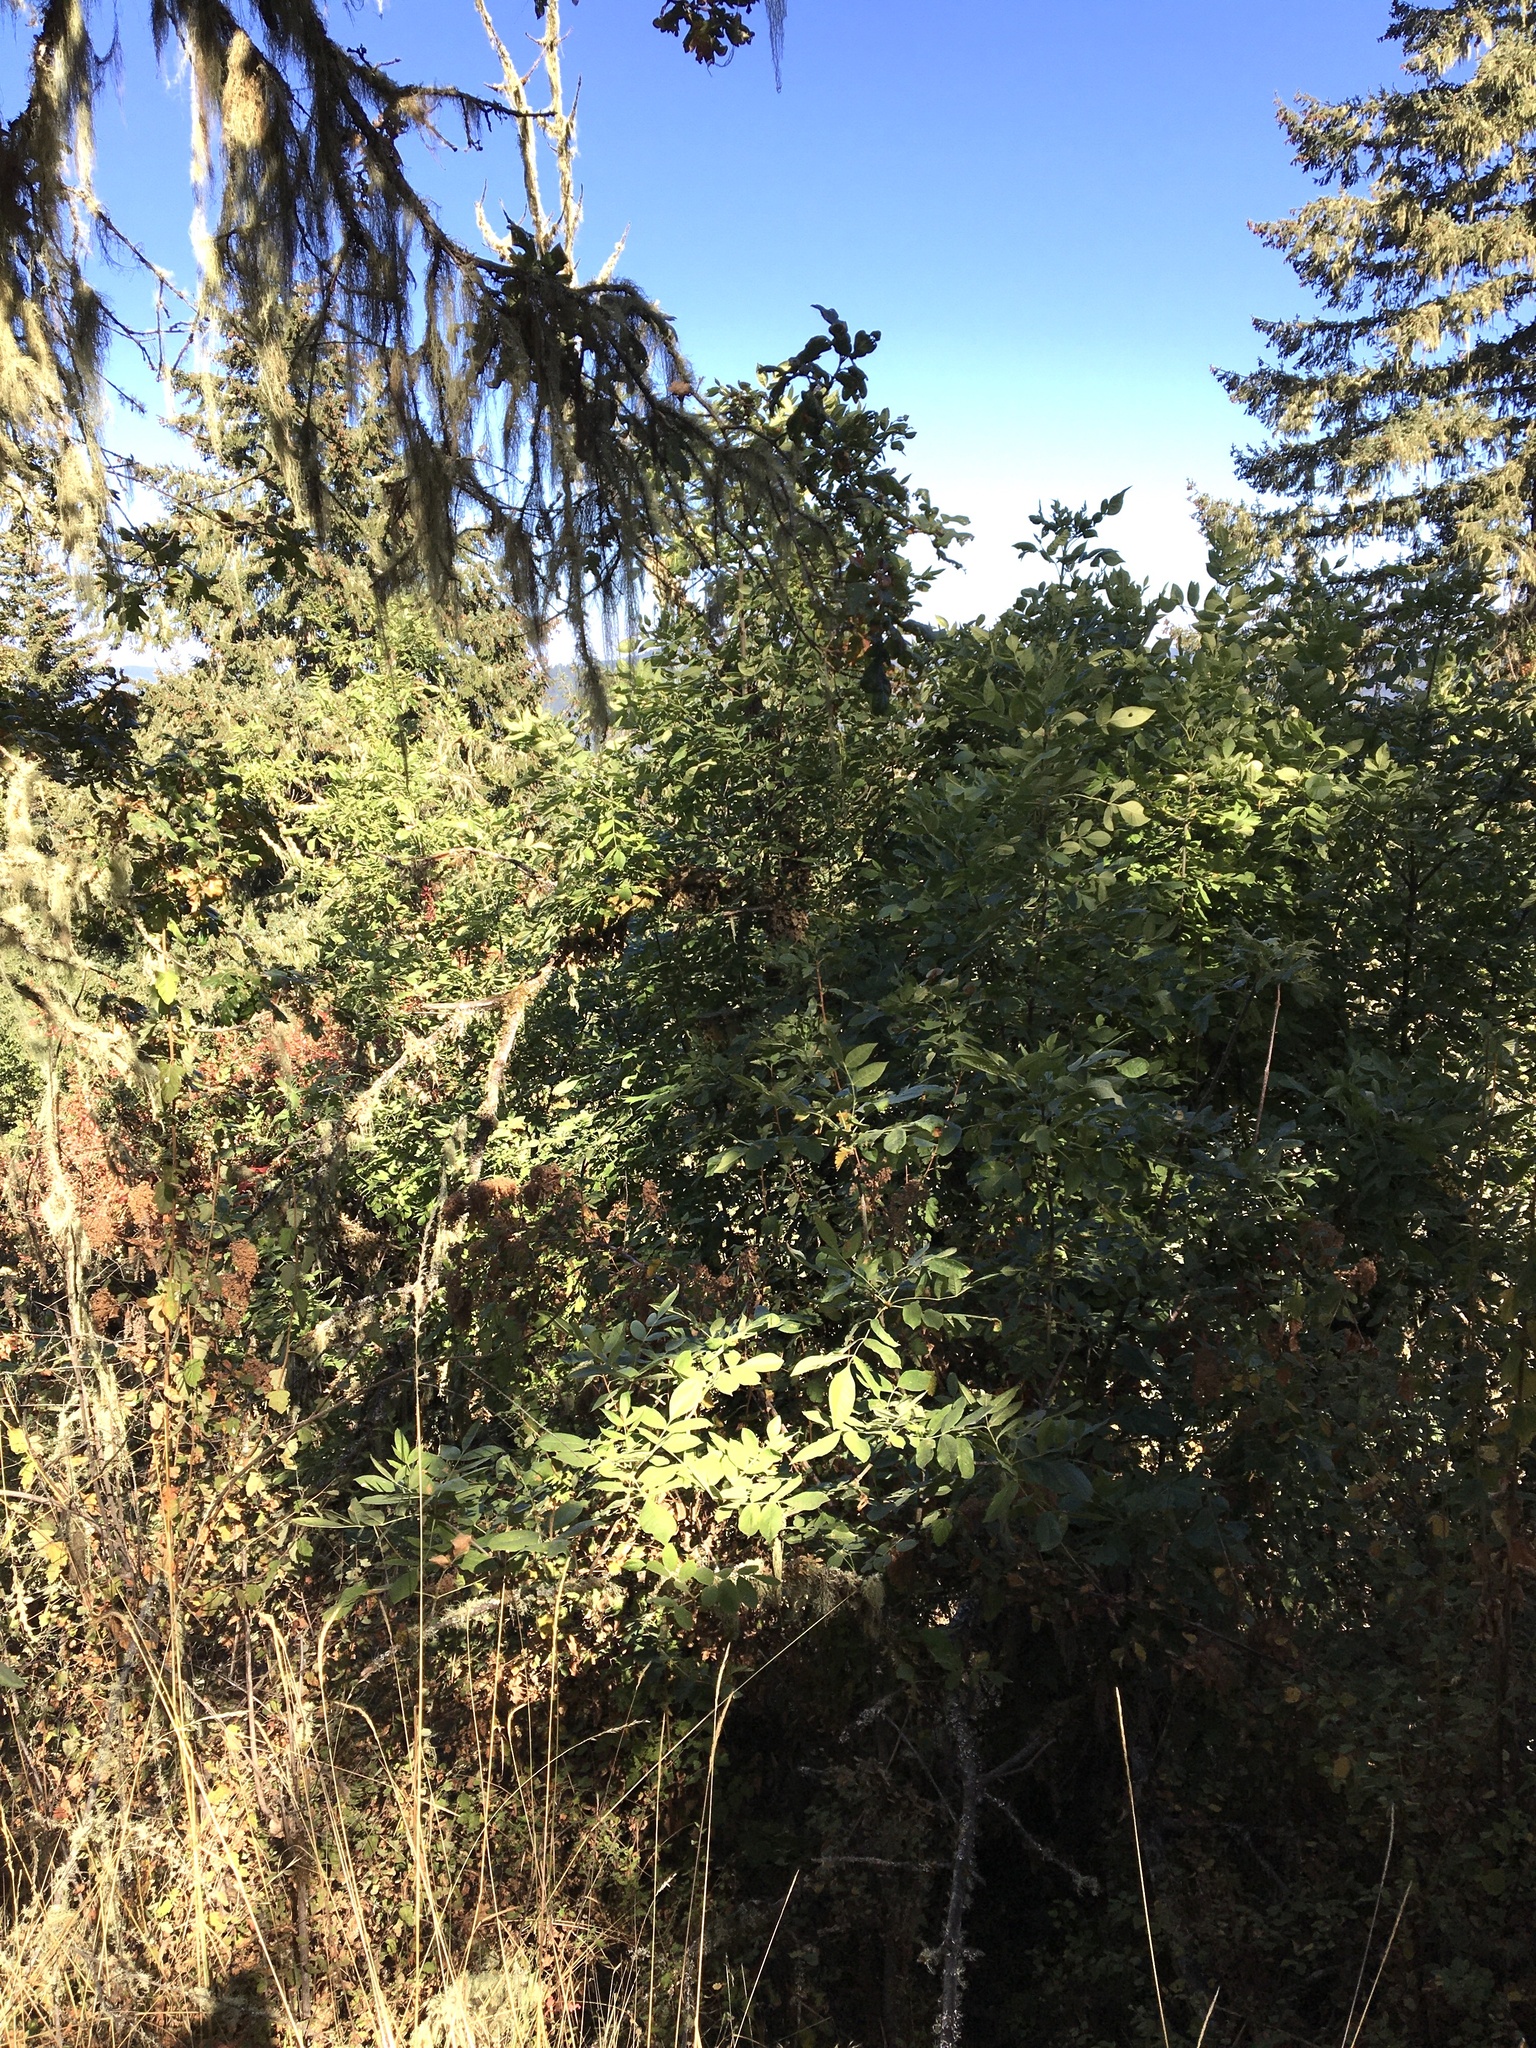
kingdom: Plantae
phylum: Tracheophyta
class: Magnoliopsida
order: Lamiales
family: Oleaceae
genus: Fraxinus
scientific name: Fraxinus latifolia
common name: Oregon ash
